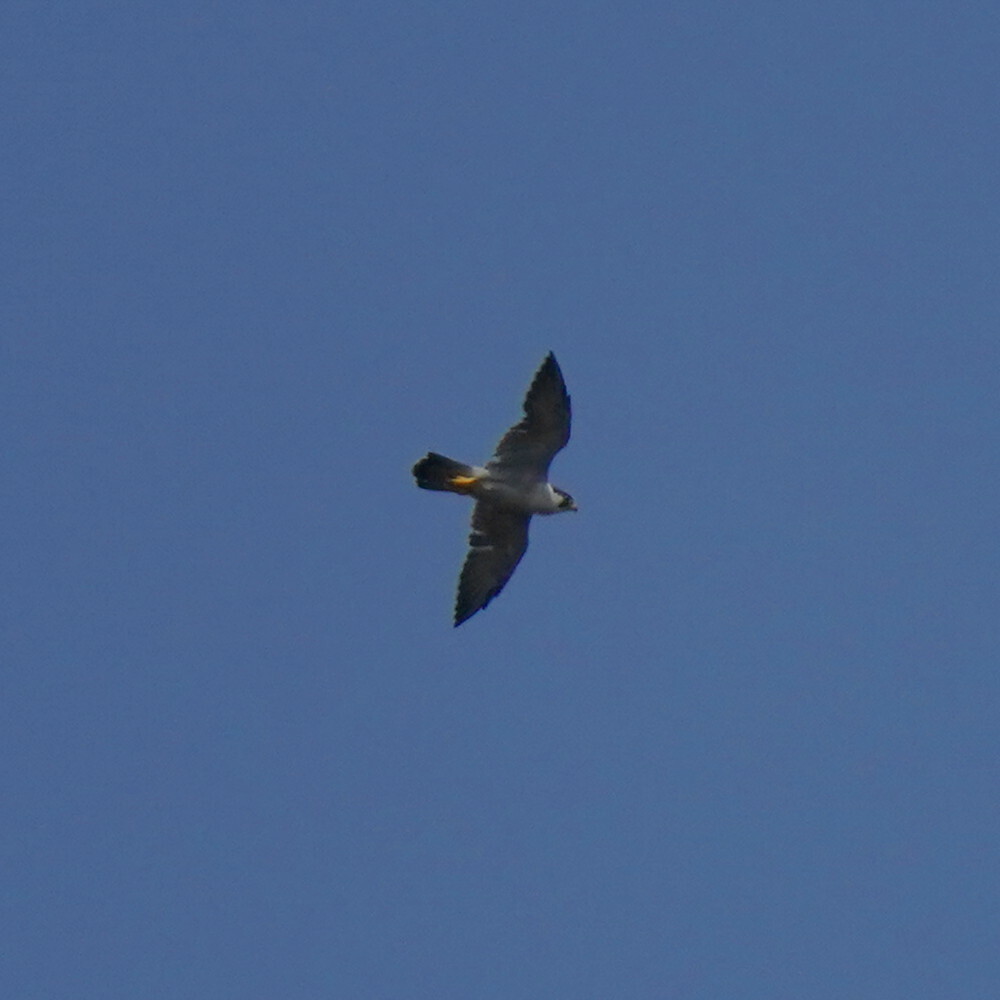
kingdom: Animalia
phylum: Chordata
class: Aves
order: Falconiformes
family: Falconidae
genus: Falco
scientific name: Falco peregrinus
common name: Peregrine falcon
